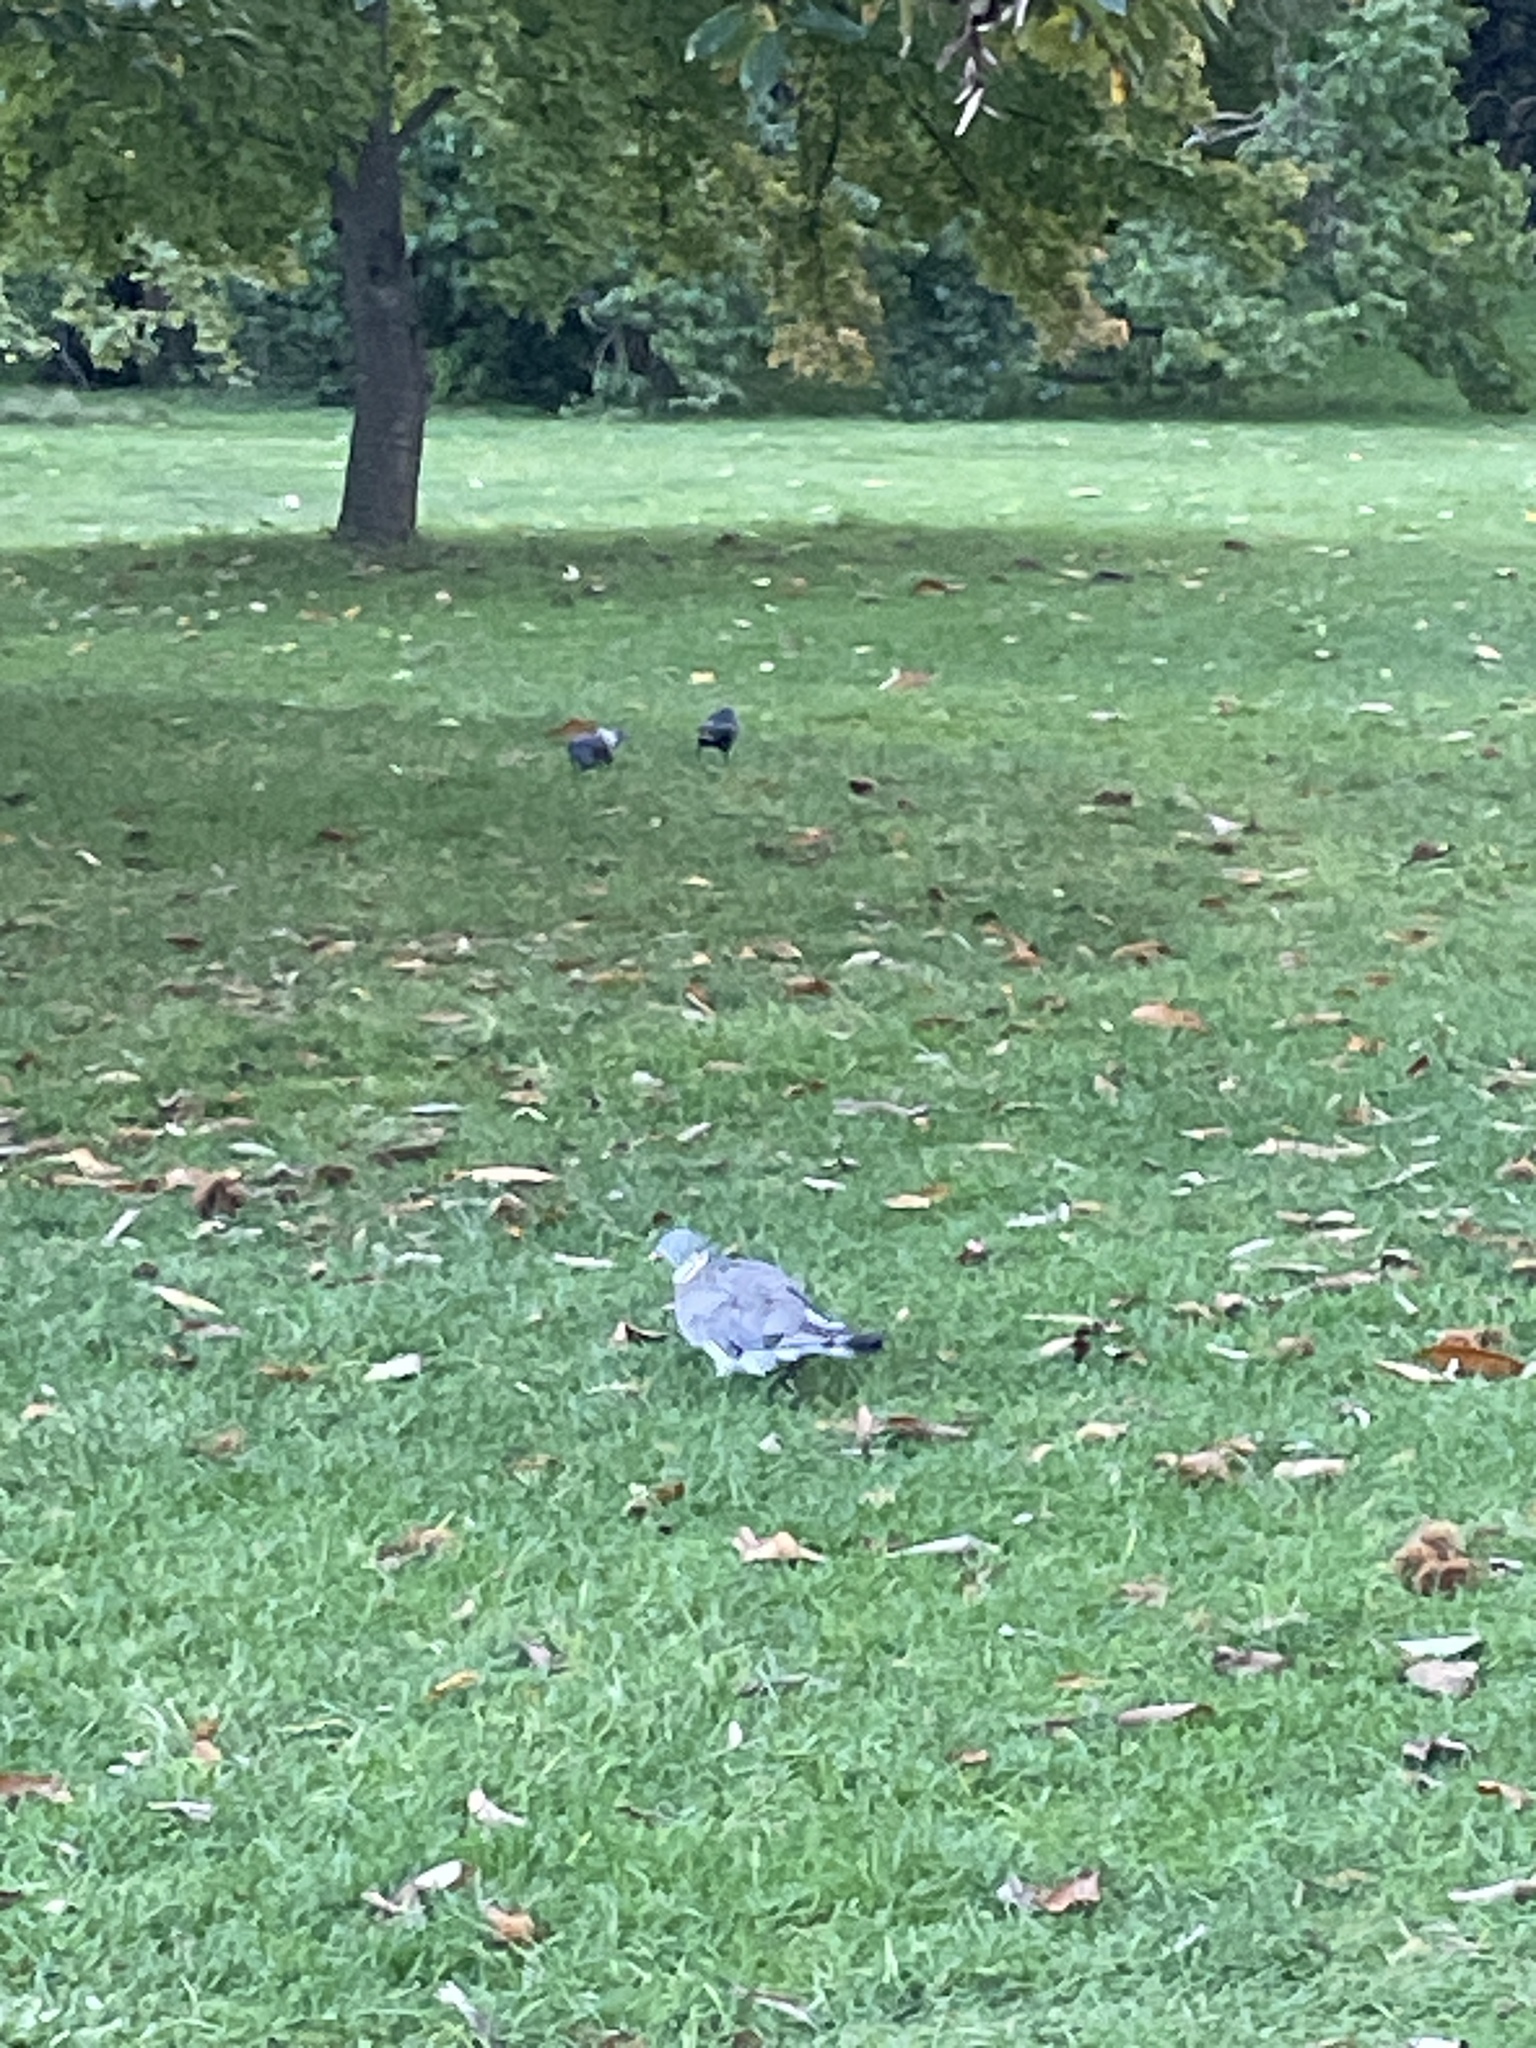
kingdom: Animalia
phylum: Chordata
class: Aves
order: Columbiformes
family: Columbidae
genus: Columba
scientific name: Columba palumbus
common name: Common wood pigeon
